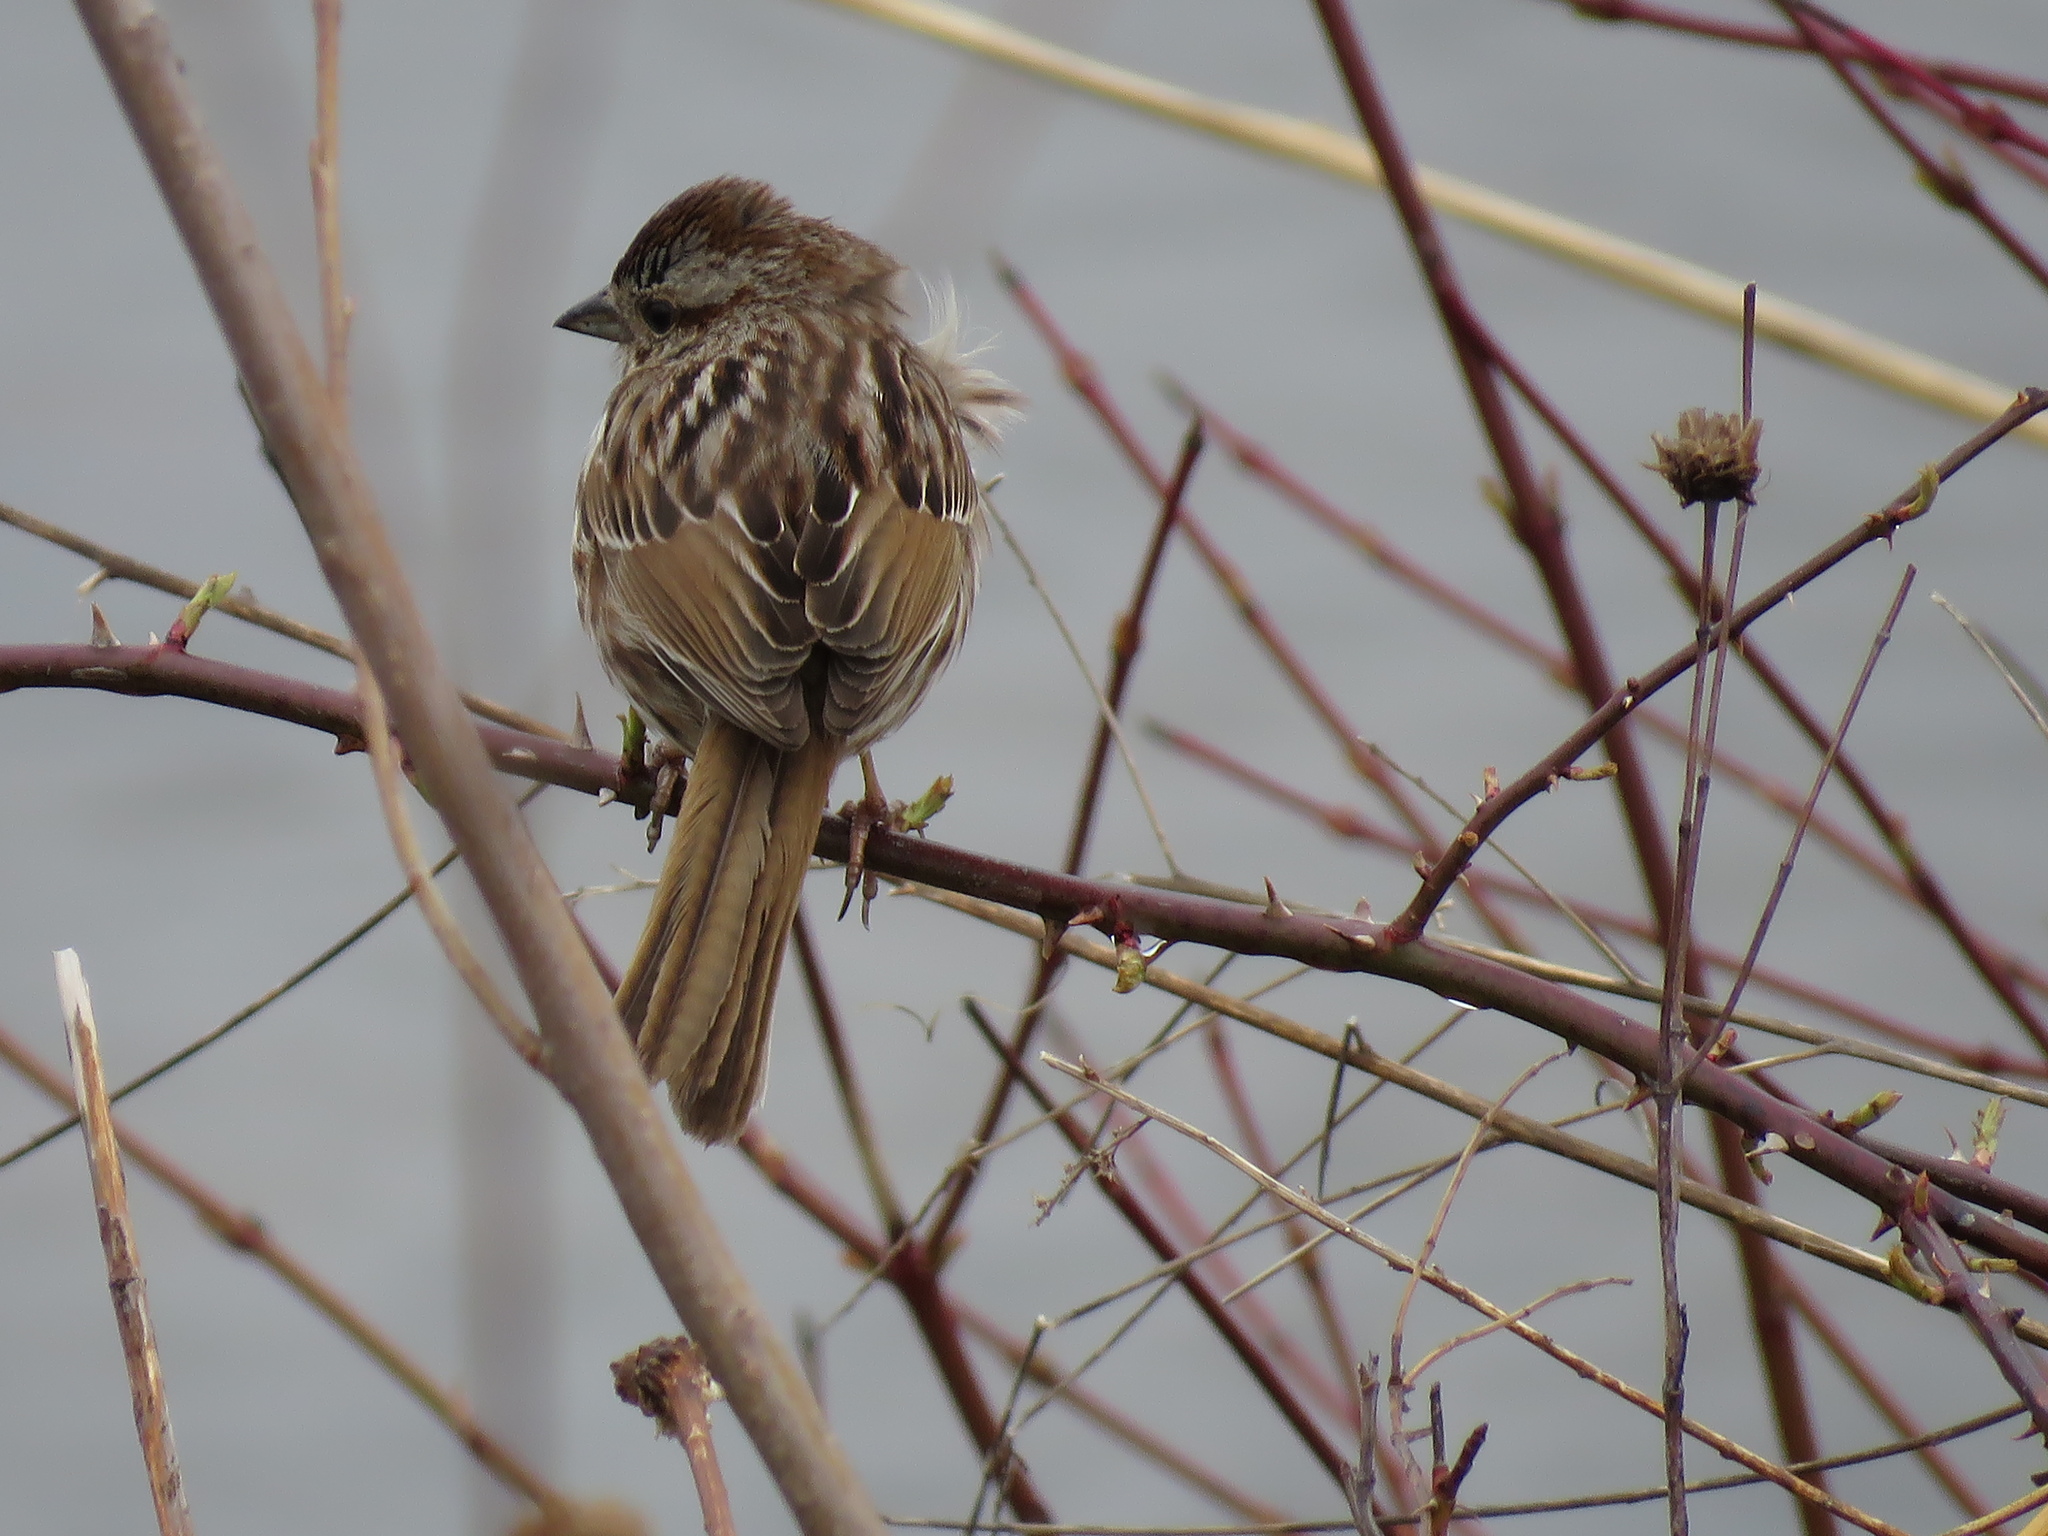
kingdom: Animalia
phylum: Chordata
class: Aves
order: Passeriformes
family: Passerellidae
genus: Melospiza
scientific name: Melospiza melodia
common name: Song sparrow
